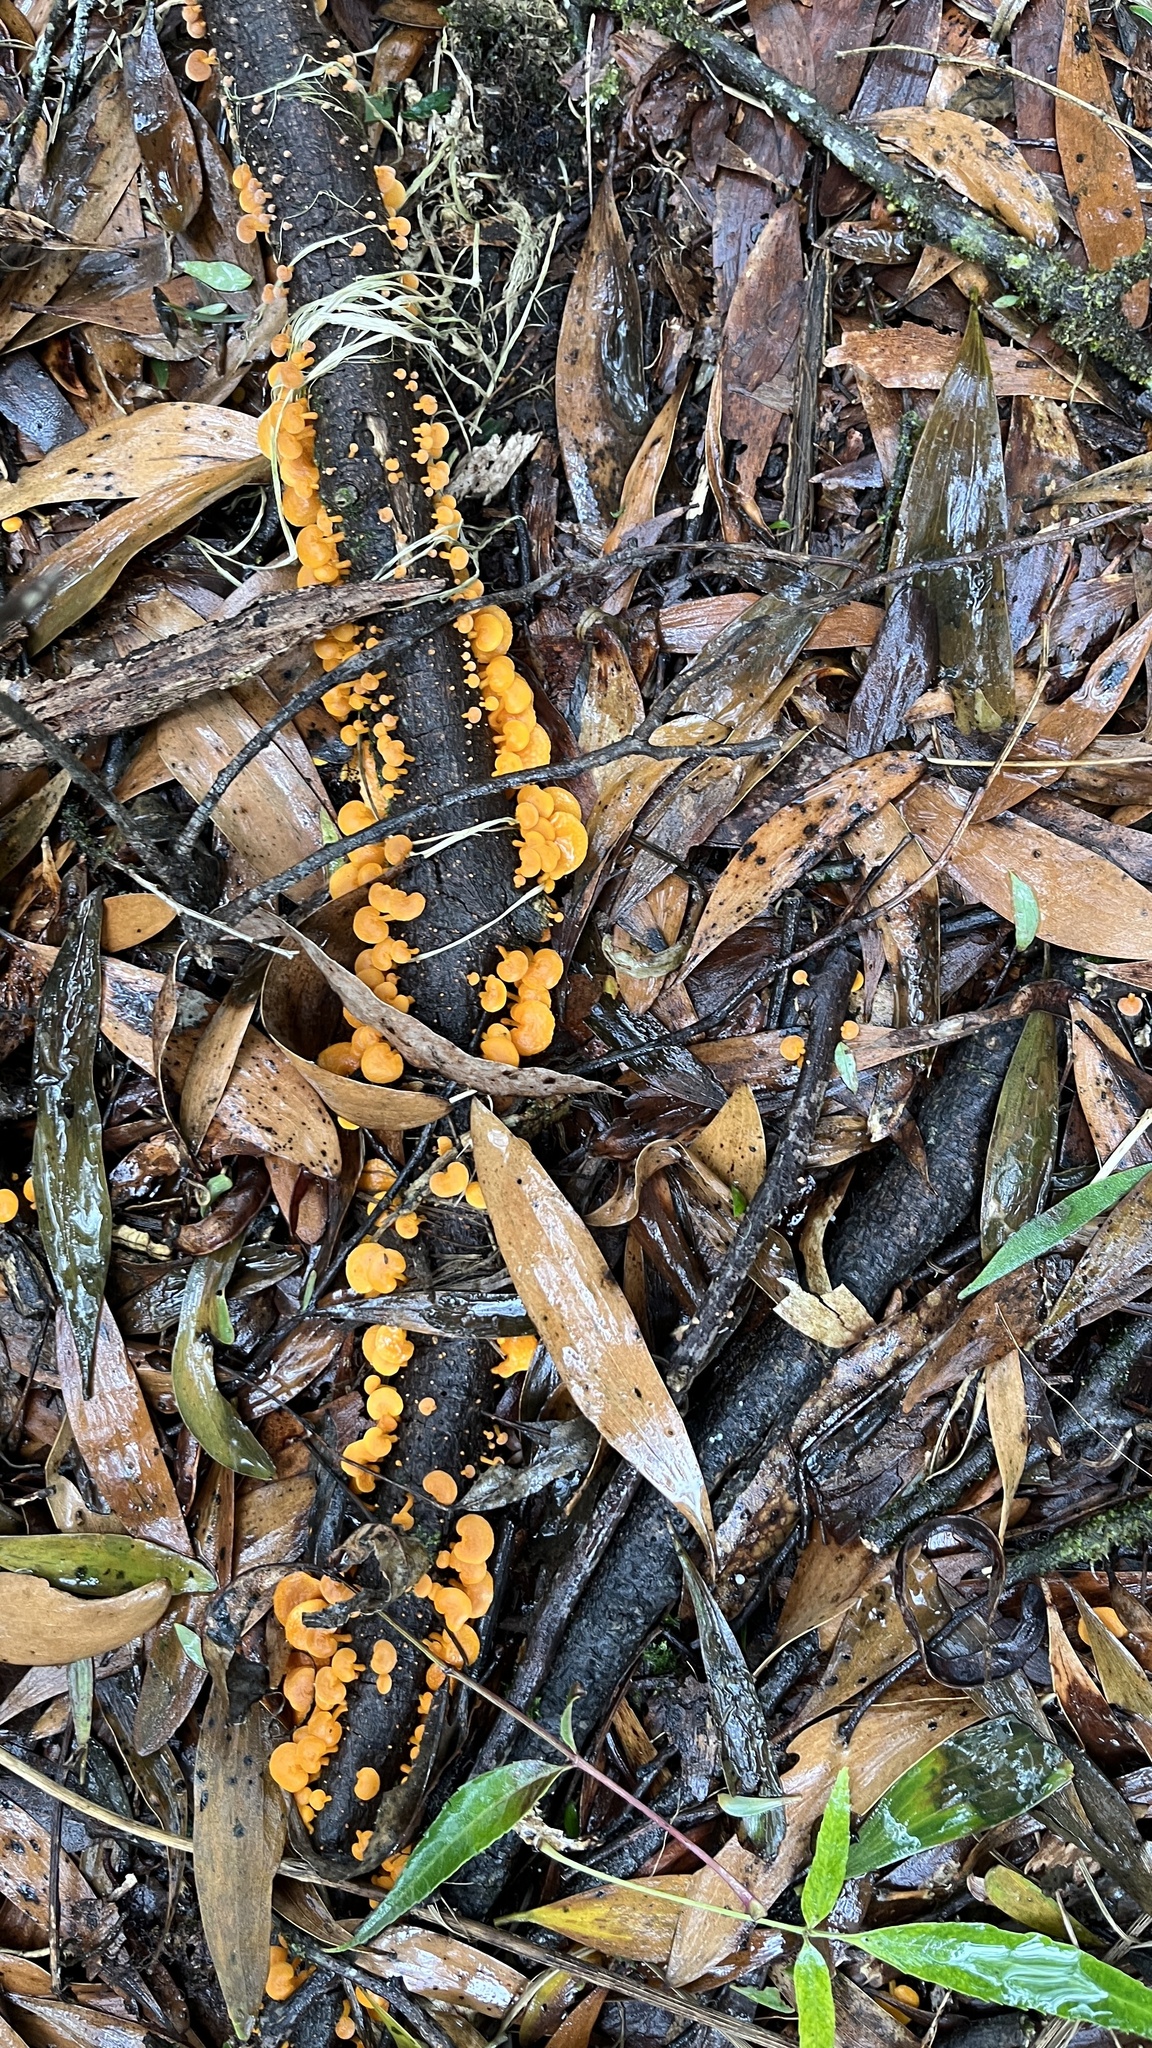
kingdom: Fungi
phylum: Basidiomycota
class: Agaricomycetes
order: Agaricales
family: Mycenaceae
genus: Favolaschia
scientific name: Favolaschia claudopus
